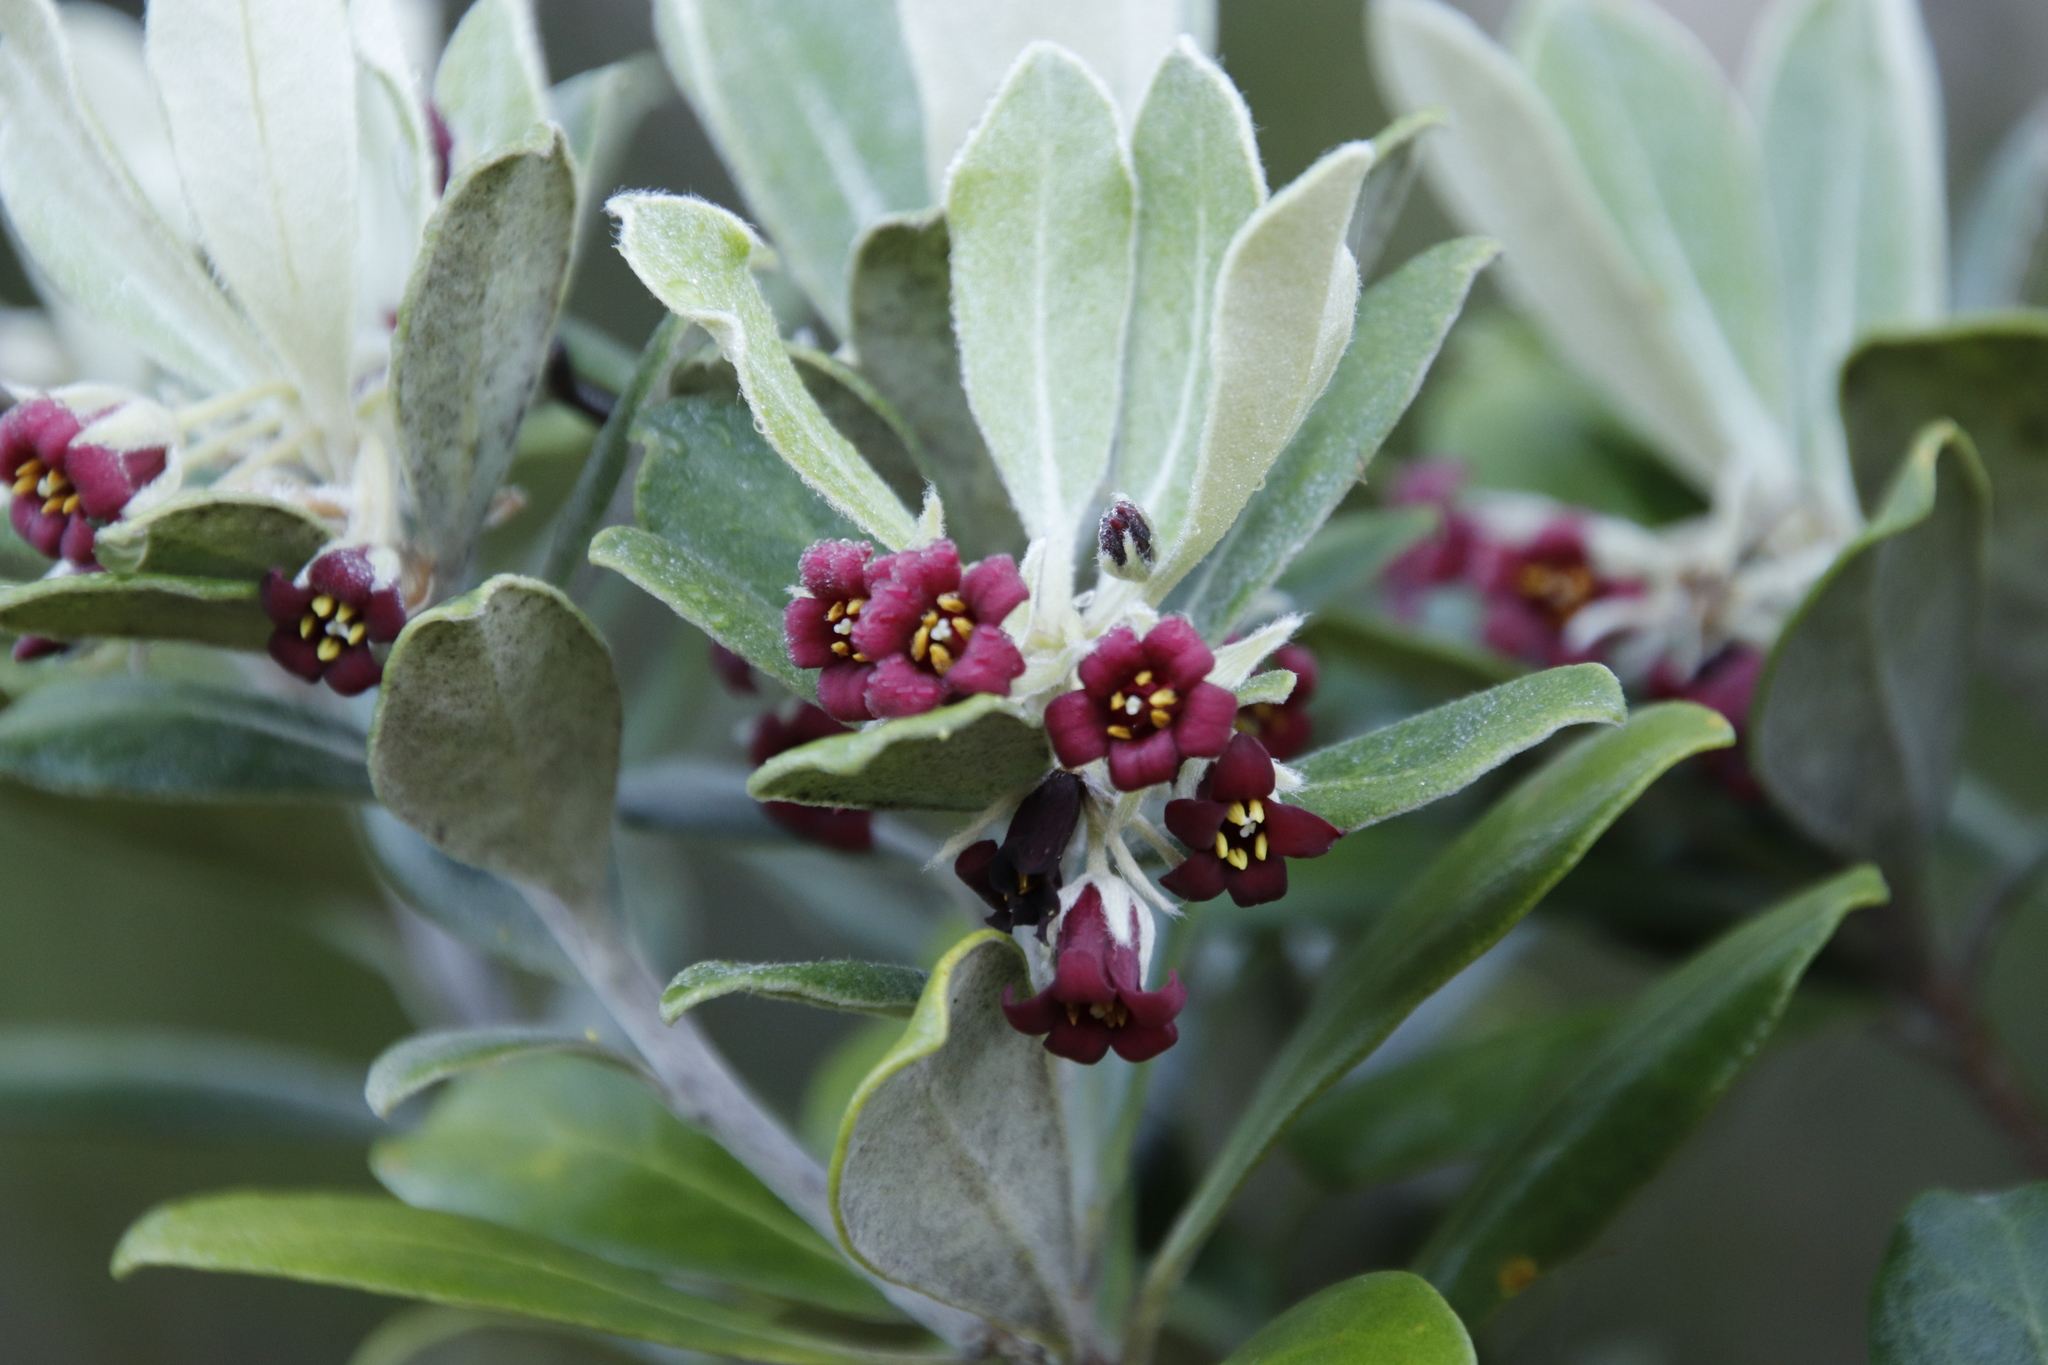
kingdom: Plantae
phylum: Tracheophyta
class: Magnoliopsida
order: Apiales
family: Pittosporaceae
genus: Pittosporum
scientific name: Pittosporum crassifolium
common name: Karo
